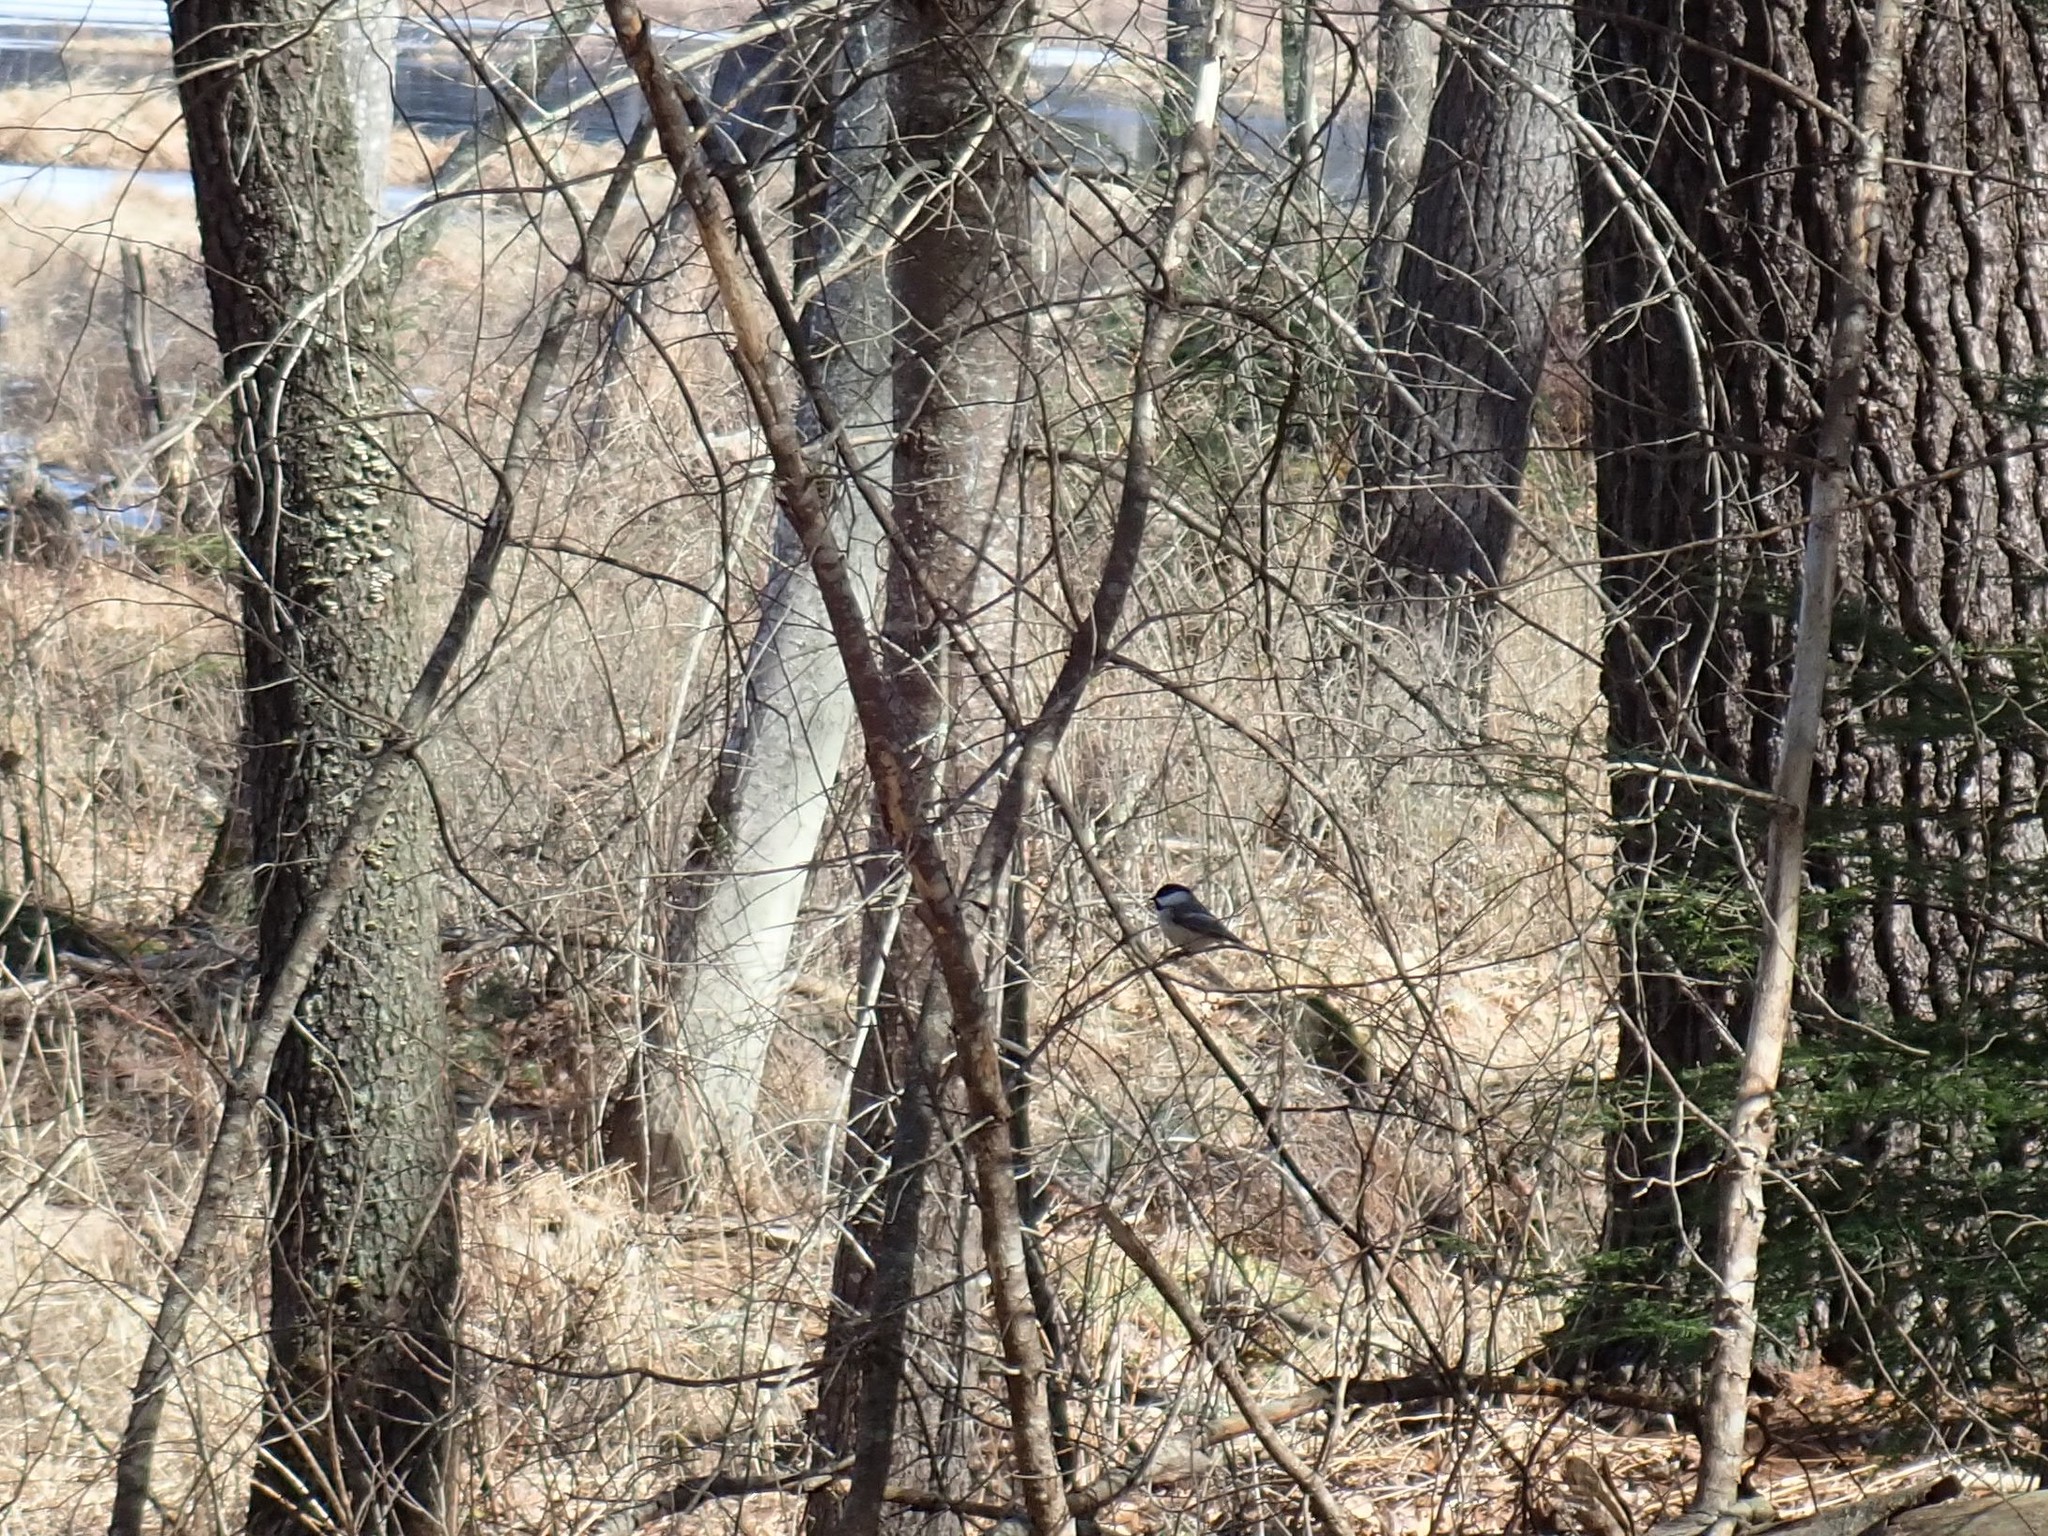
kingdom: Animalia
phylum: Chordata
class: Aves
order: Passeriformes
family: Paridae
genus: Poecile
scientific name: Poecile atricapillus
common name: Black-capped chickadee
